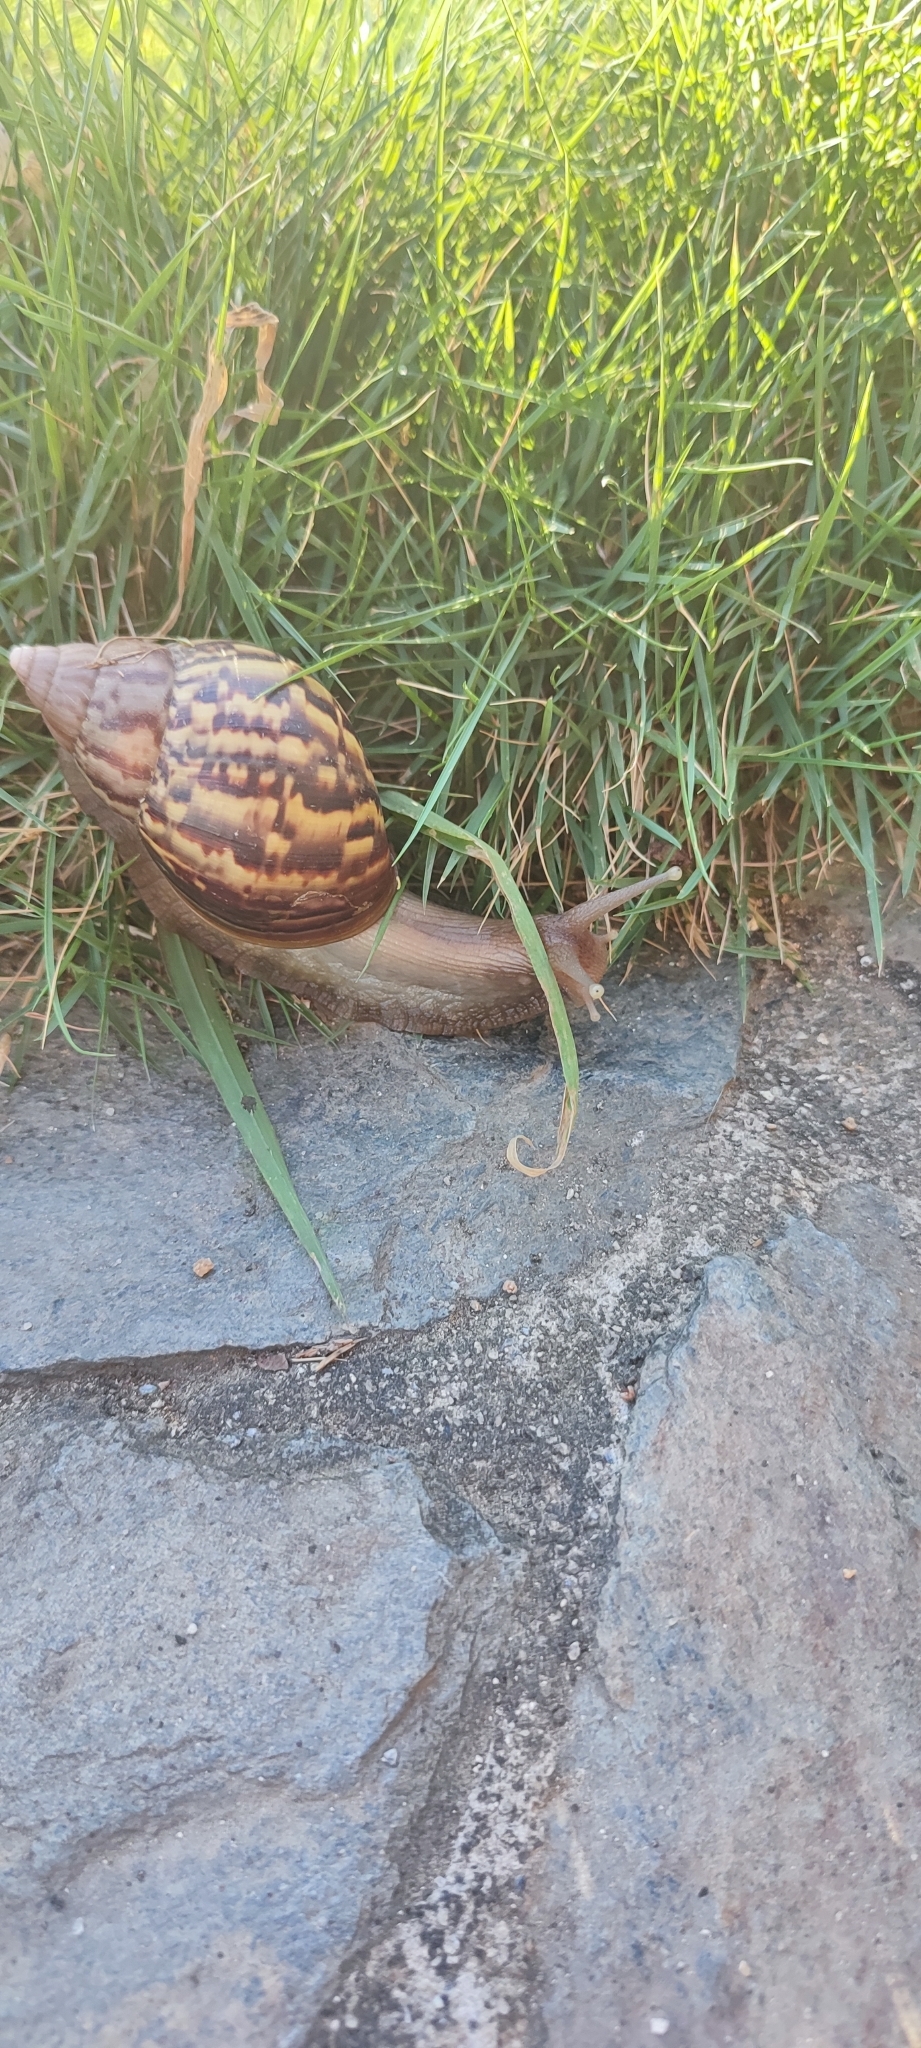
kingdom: Animalia
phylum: Mollusca
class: Gastropoda
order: Stylommatophora
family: Achatinidae
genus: Lissachatina
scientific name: Lissachatina fulica
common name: Giant african snail
